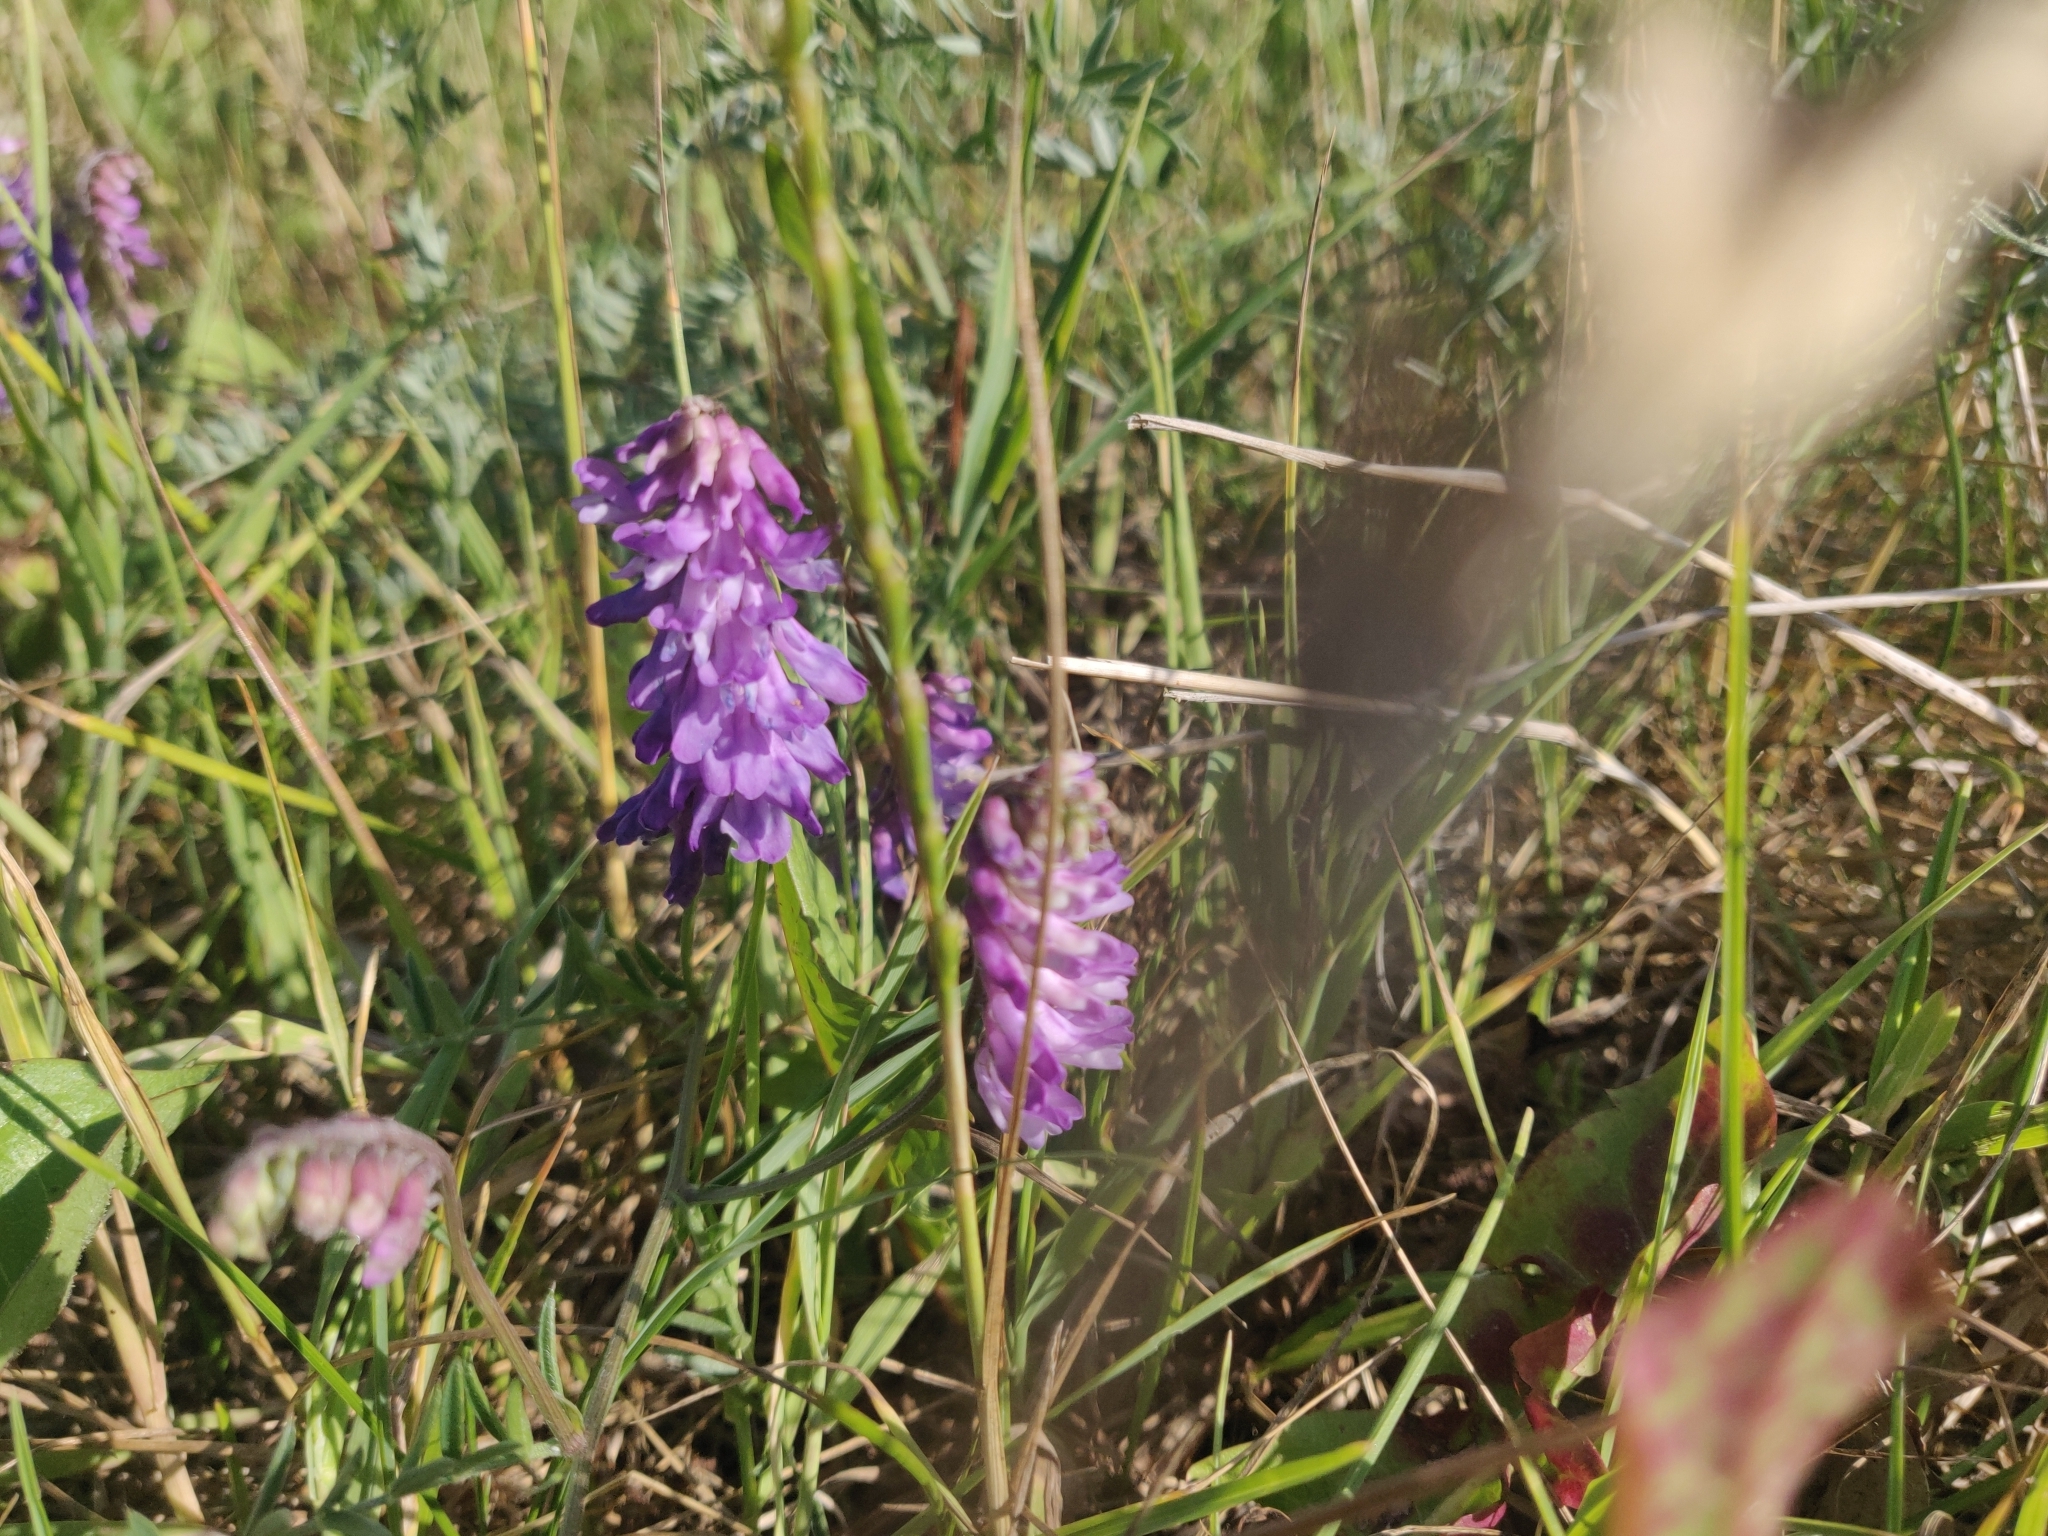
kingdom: Plantae
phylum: Tracheophyta
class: Magnoliopsida
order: Fabales
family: Fabaceae
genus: Vicia
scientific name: Vicia cracca
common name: Bird vetch
